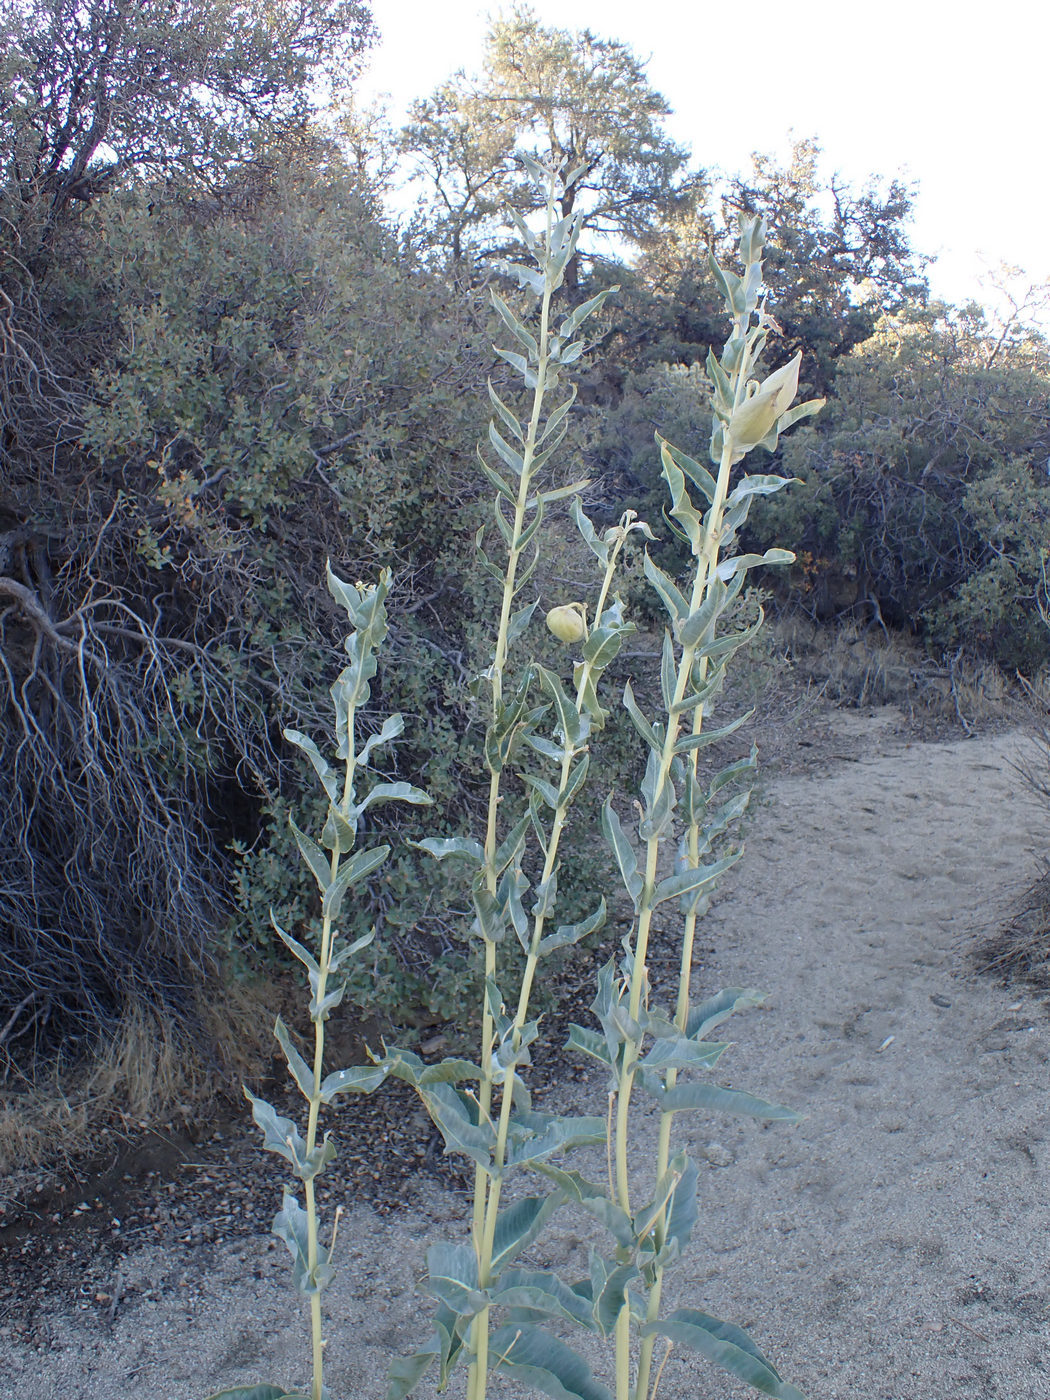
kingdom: Plantae
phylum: Tracheophyta
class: Magnoliopsida
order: Gentianales
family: Apocynaceae
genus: Asclepias
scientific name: Asclepias erosa
